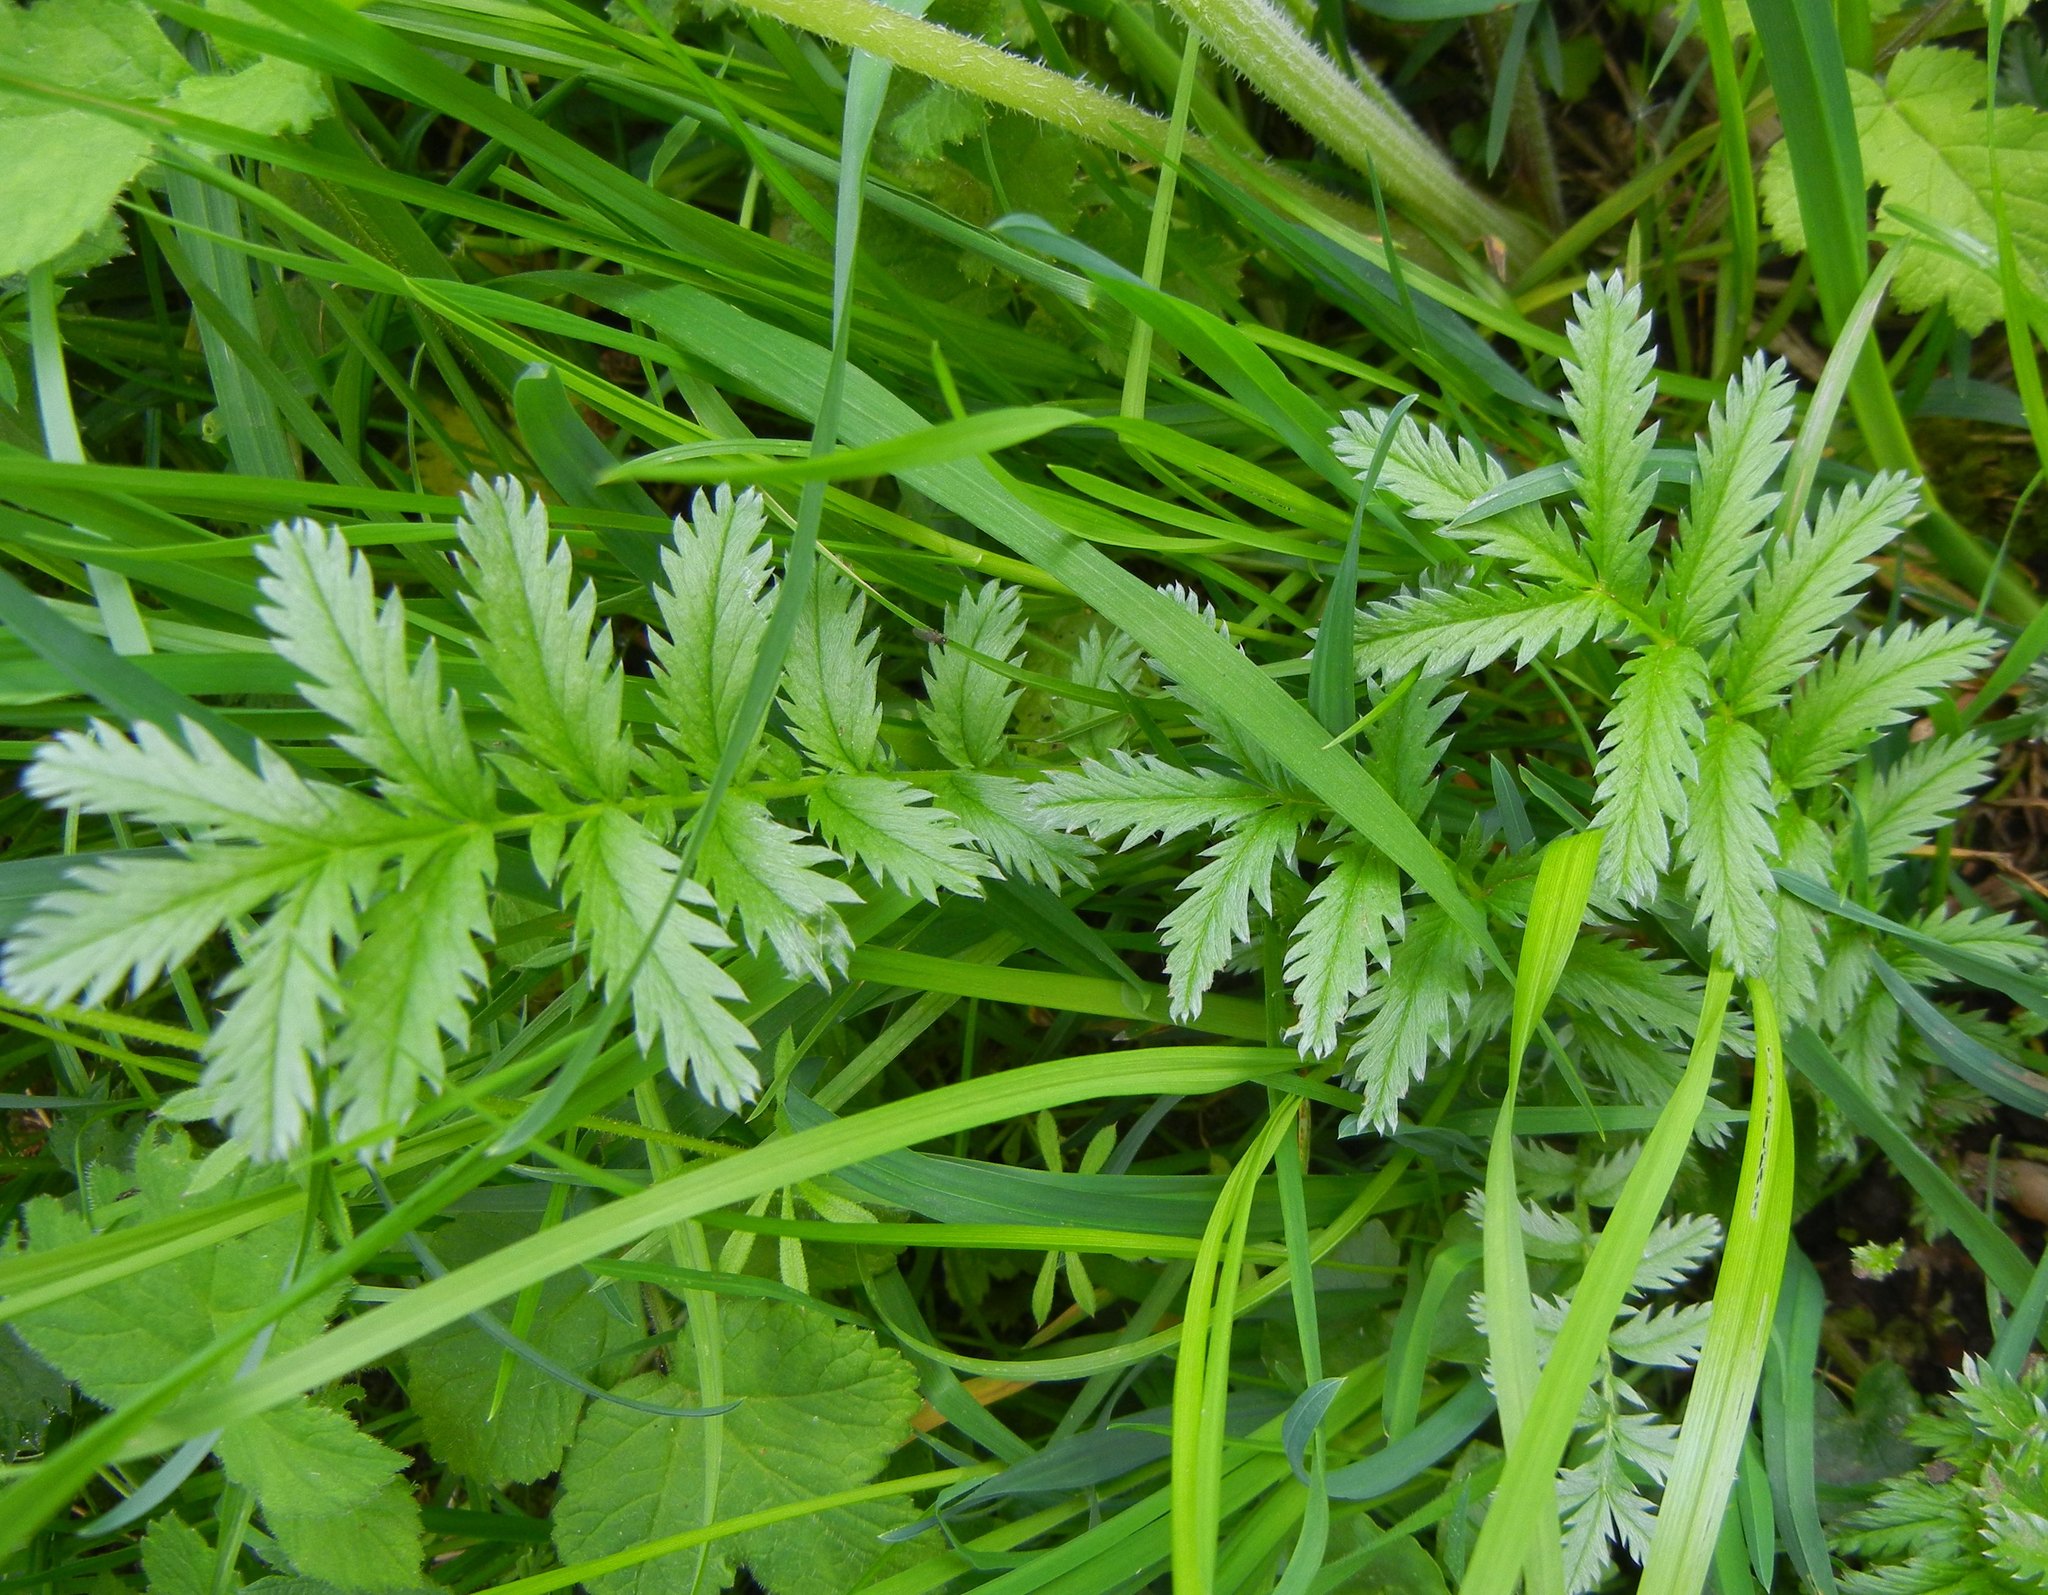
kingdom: Plantae
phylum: Tracheophyta
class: Magnoliopsida
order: Rosales
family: Rosaceae
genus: Argentina
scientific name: Argentina anserina
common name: Common silverweed
